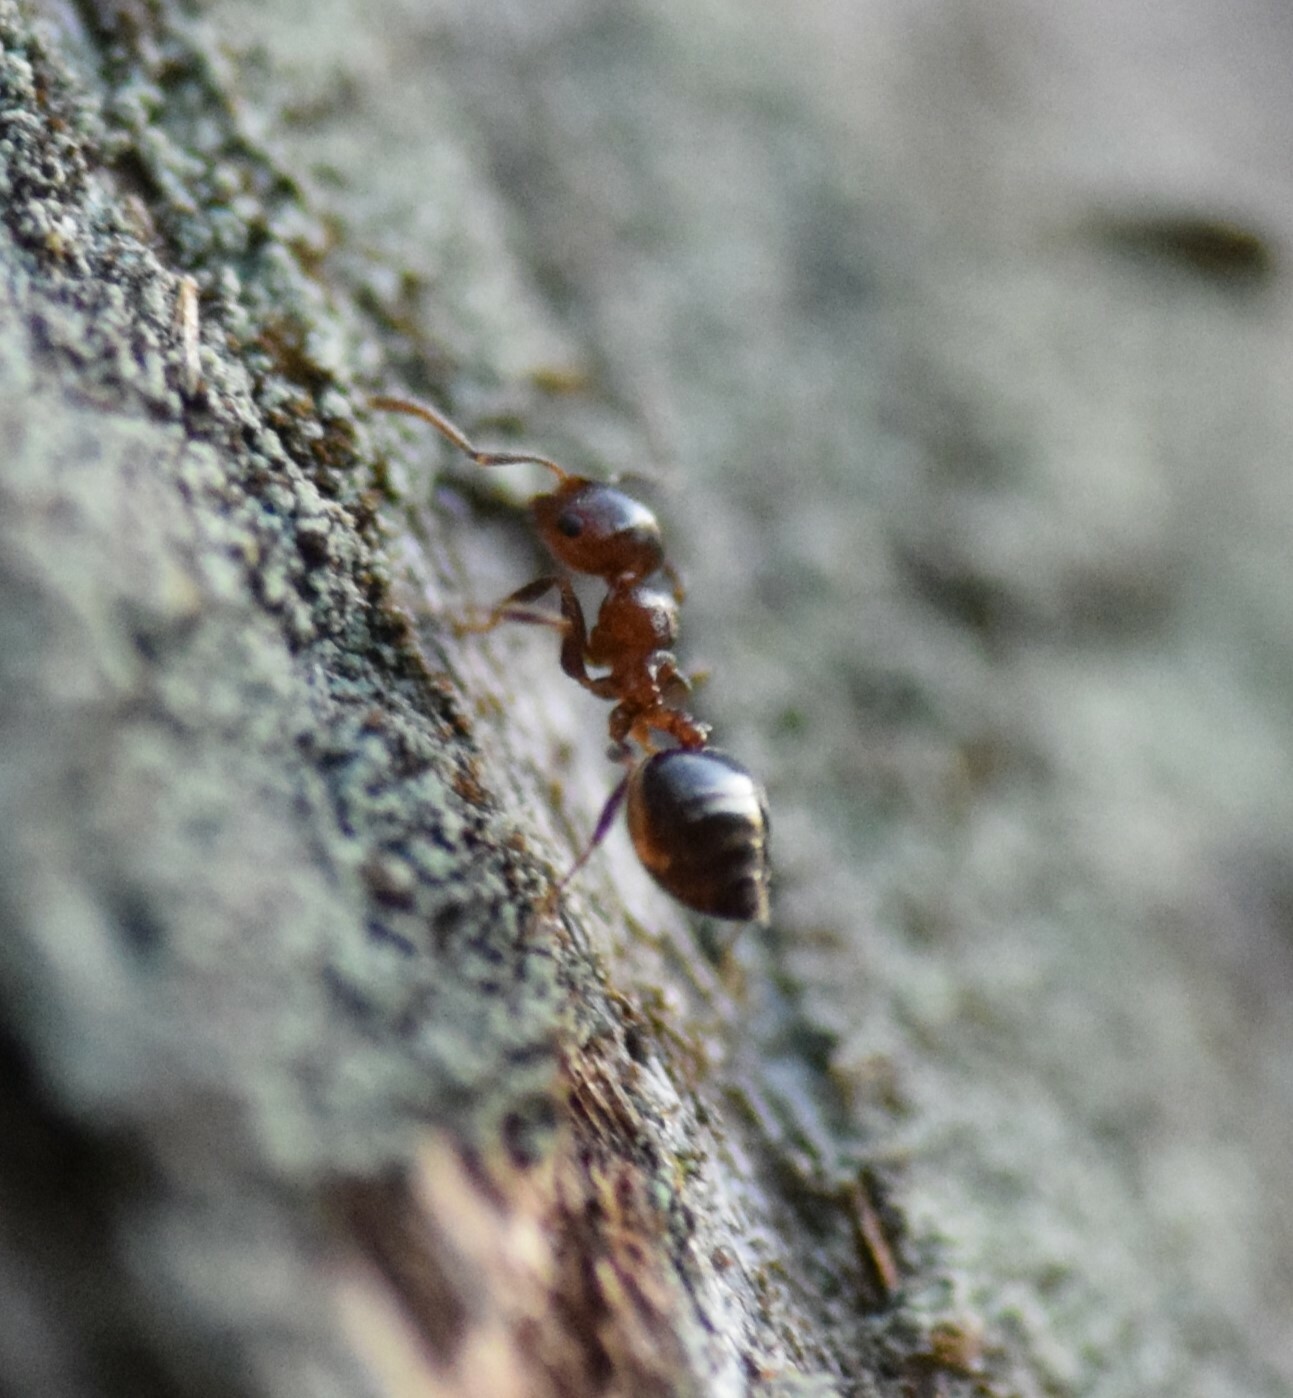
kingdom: Animalia
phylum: Arthropoda
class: Insecta
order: Hymenoptera
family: Formicidae
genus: Crematogaster
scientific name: Crematogaster ashmeadi
